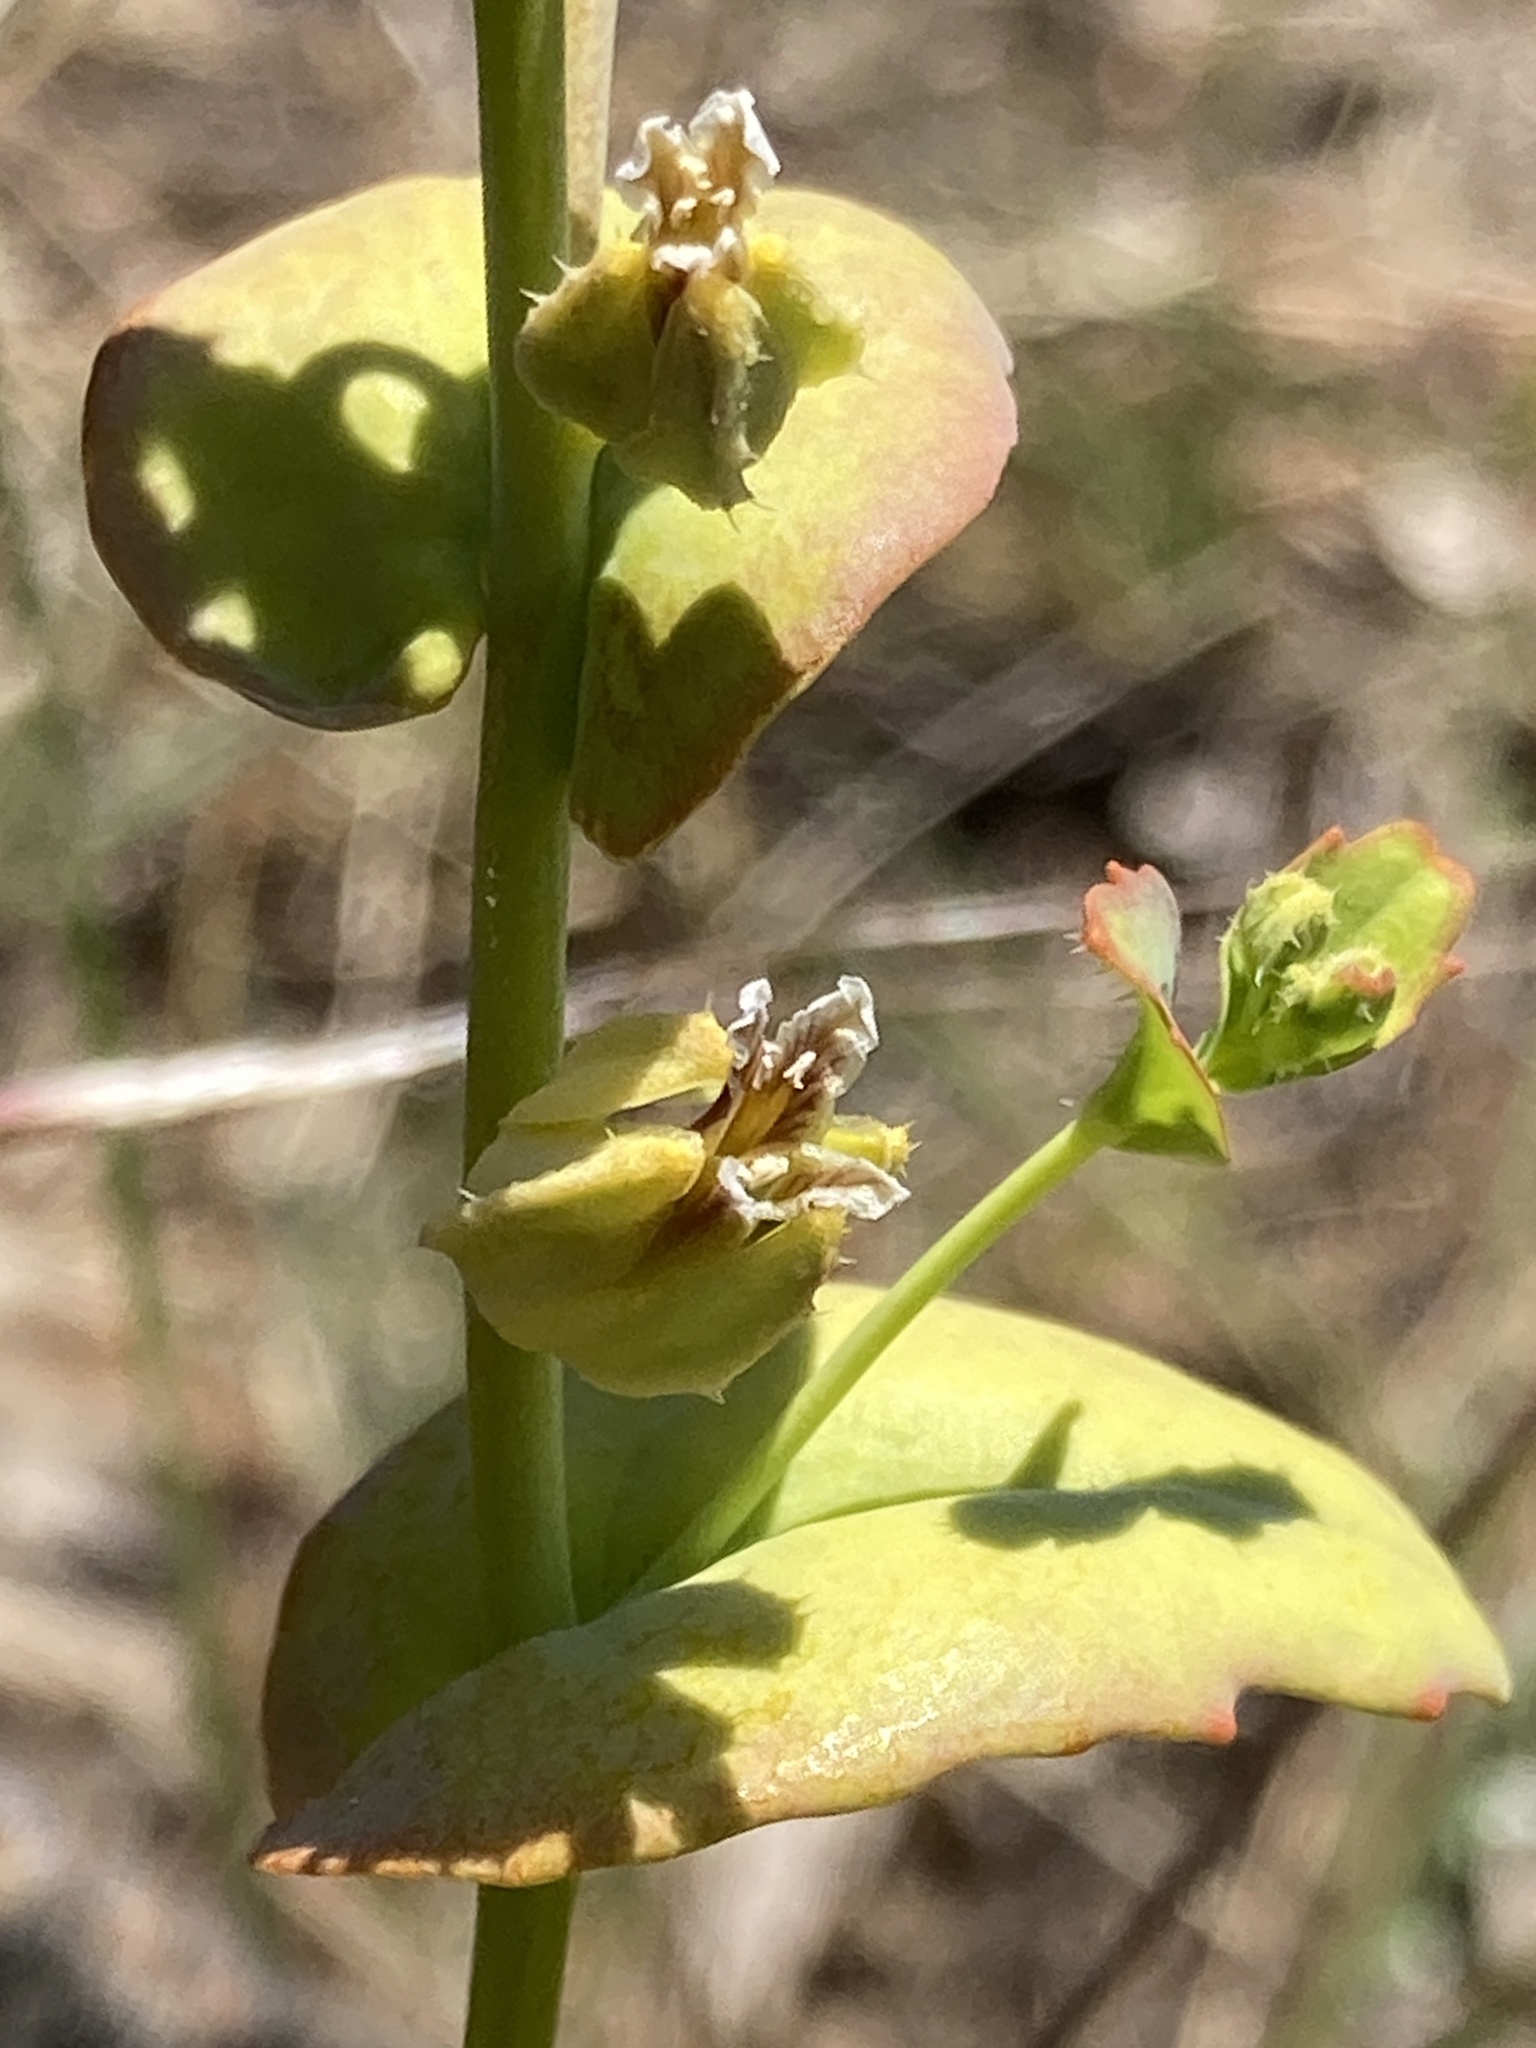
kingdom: Plantae
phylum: Tracheophyta
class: Magnoliopsida
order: Brassicales
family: Brassicaceae
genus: Streptanthus
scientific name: Streptanthus anomalus
